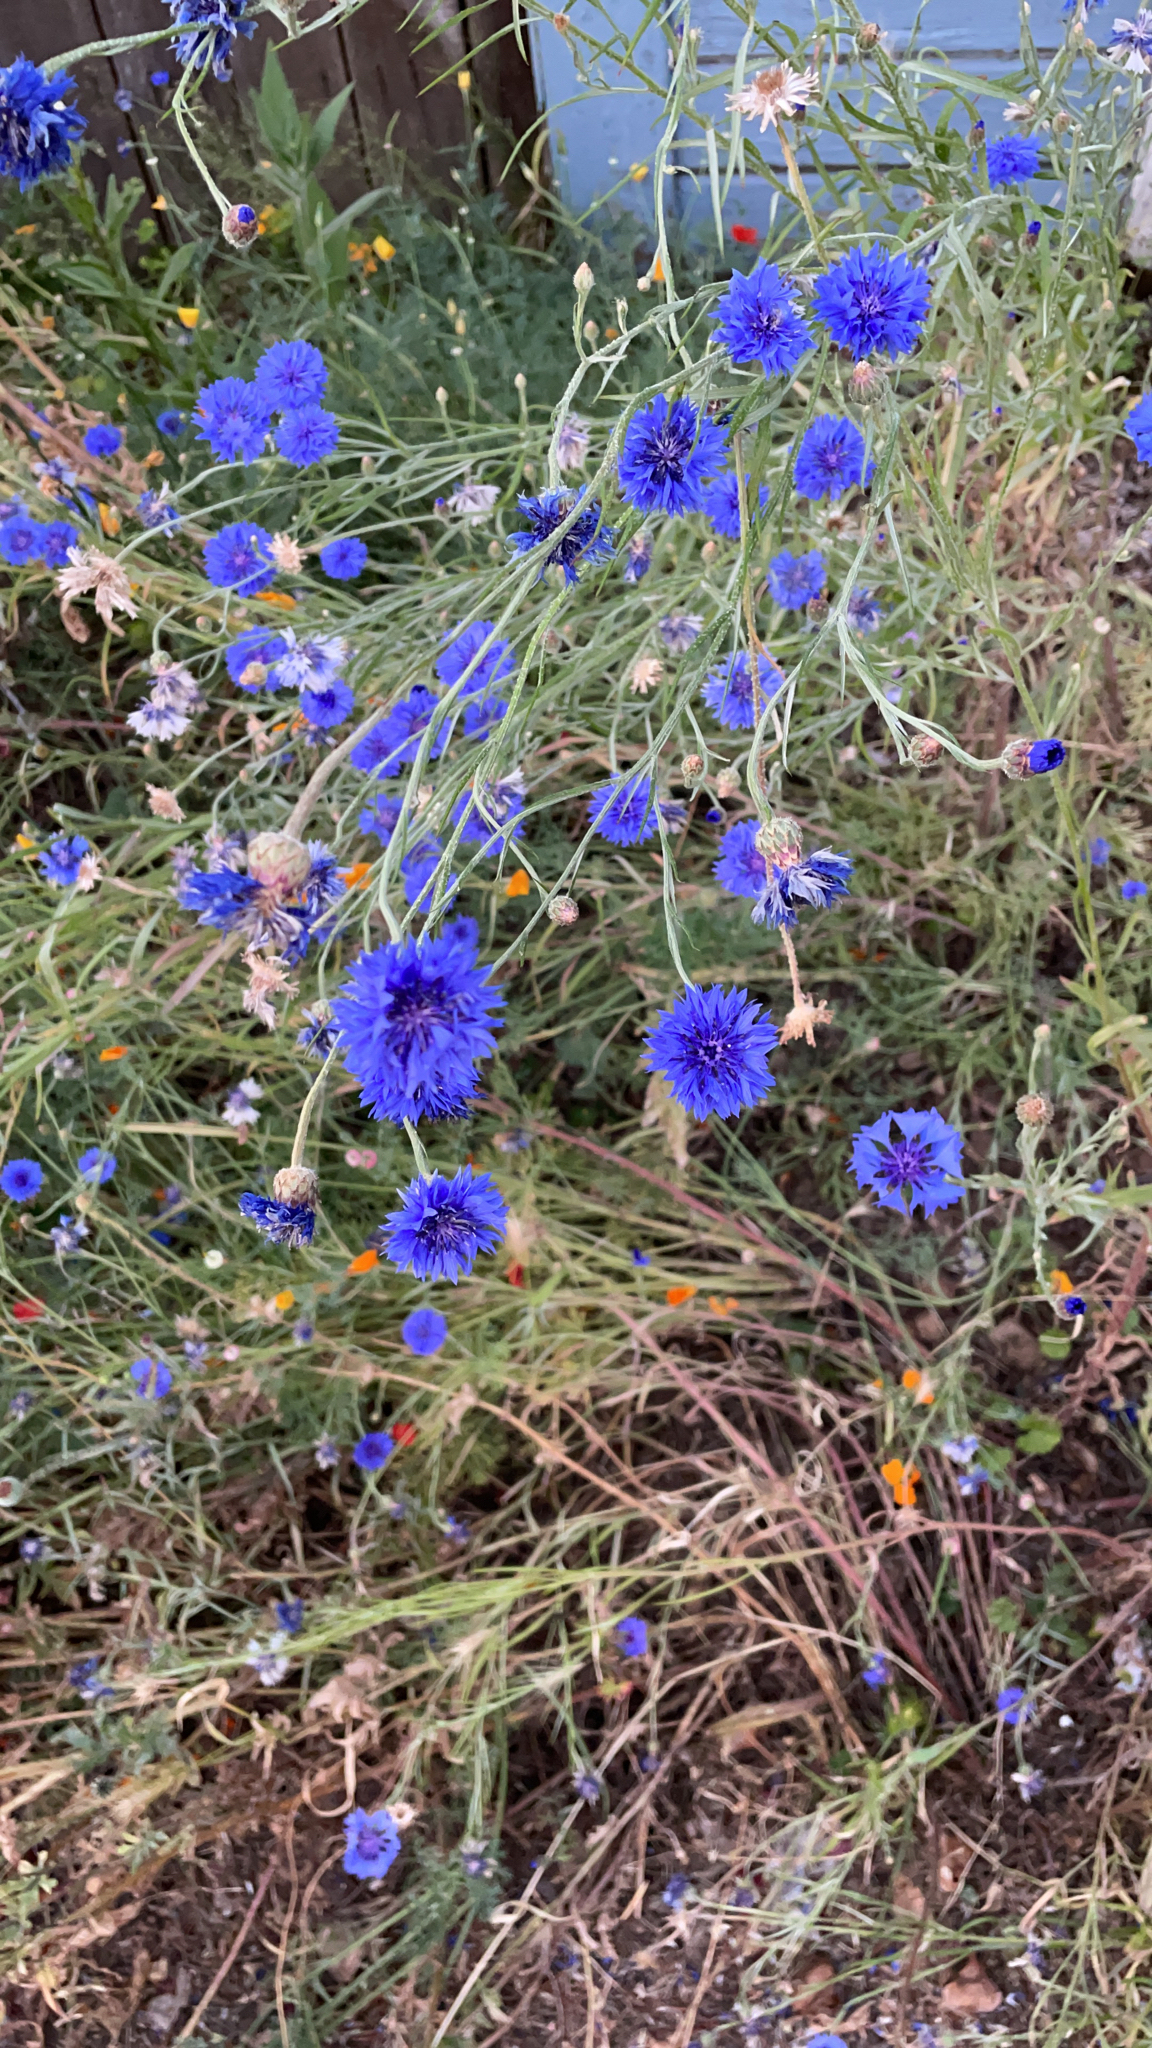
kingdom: Plantae
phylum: Tracheophyta
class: Magnoliopsida
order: Asterales
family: Asteraceae
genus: Centaurea
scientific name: Centaurea cyanus
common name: Cornflower
